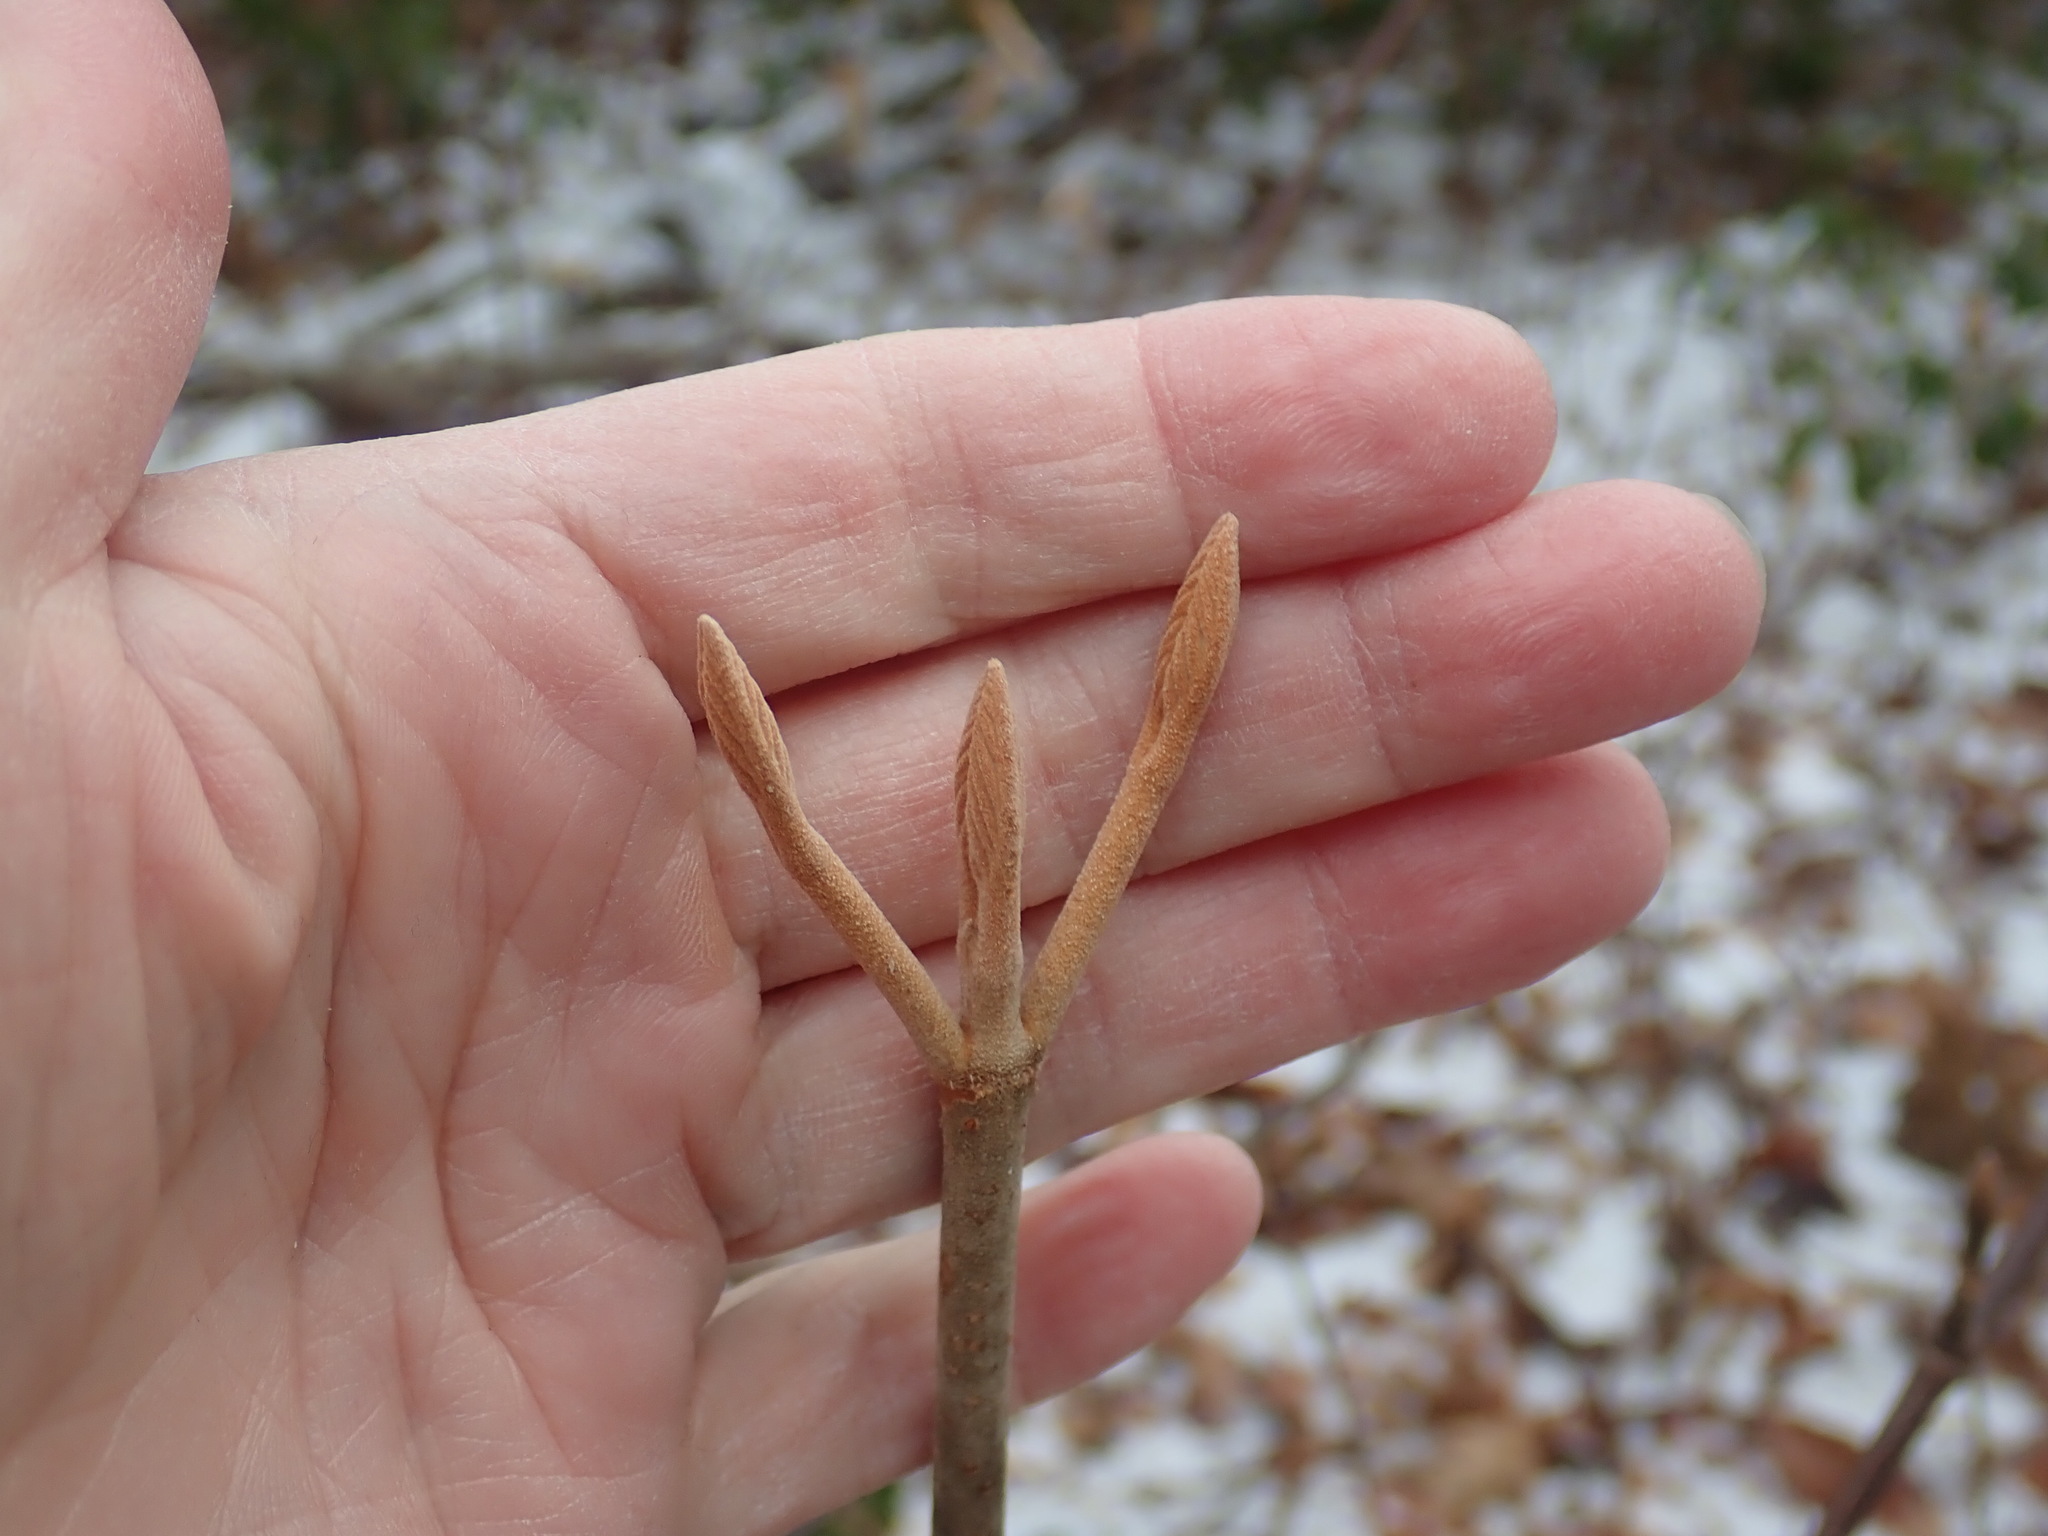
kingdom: Plantae
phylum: Tracheophyta
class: Magnoliopsida
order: Dipsacales
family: Viburnaceae
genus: Viburnum
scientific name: Viburnum lantanoides
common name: Hobblebush
